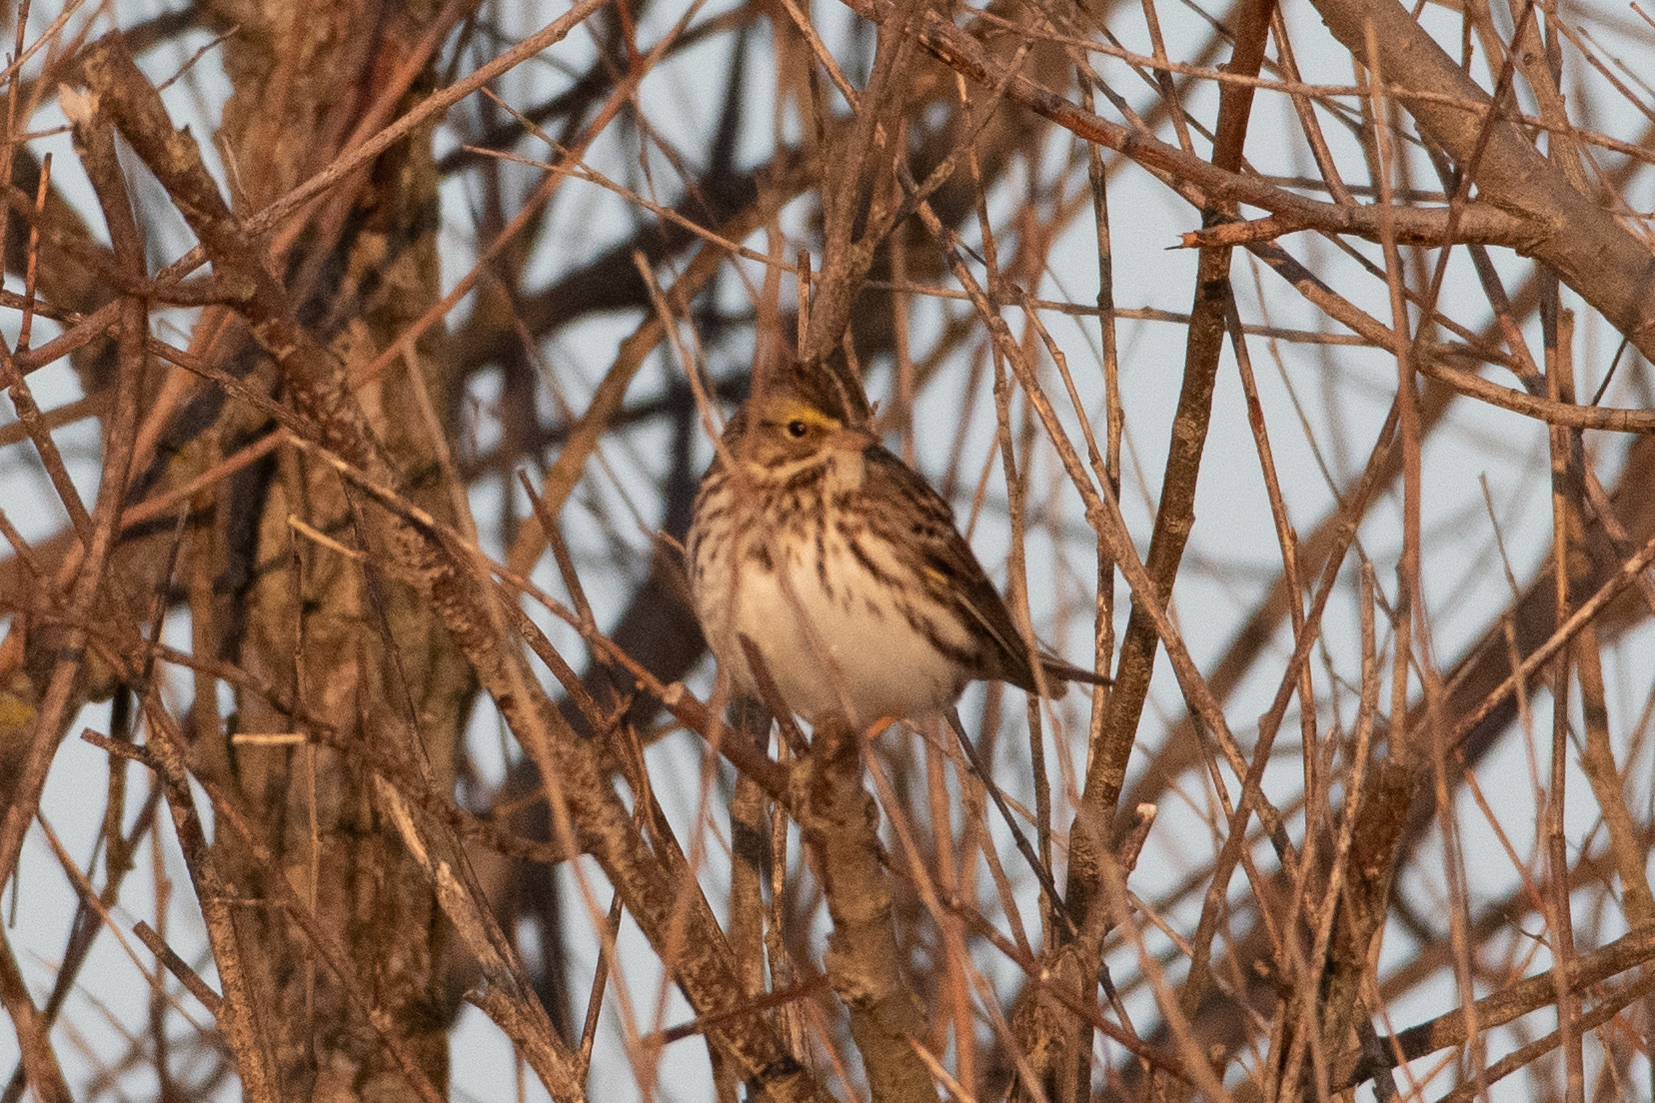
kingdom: Animalia
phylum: Chordata
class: Aves
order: Passeriformes
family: Passerellidae
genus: Passerculus
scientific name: Passerculus sandwichensis
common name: Savannah sparrow
